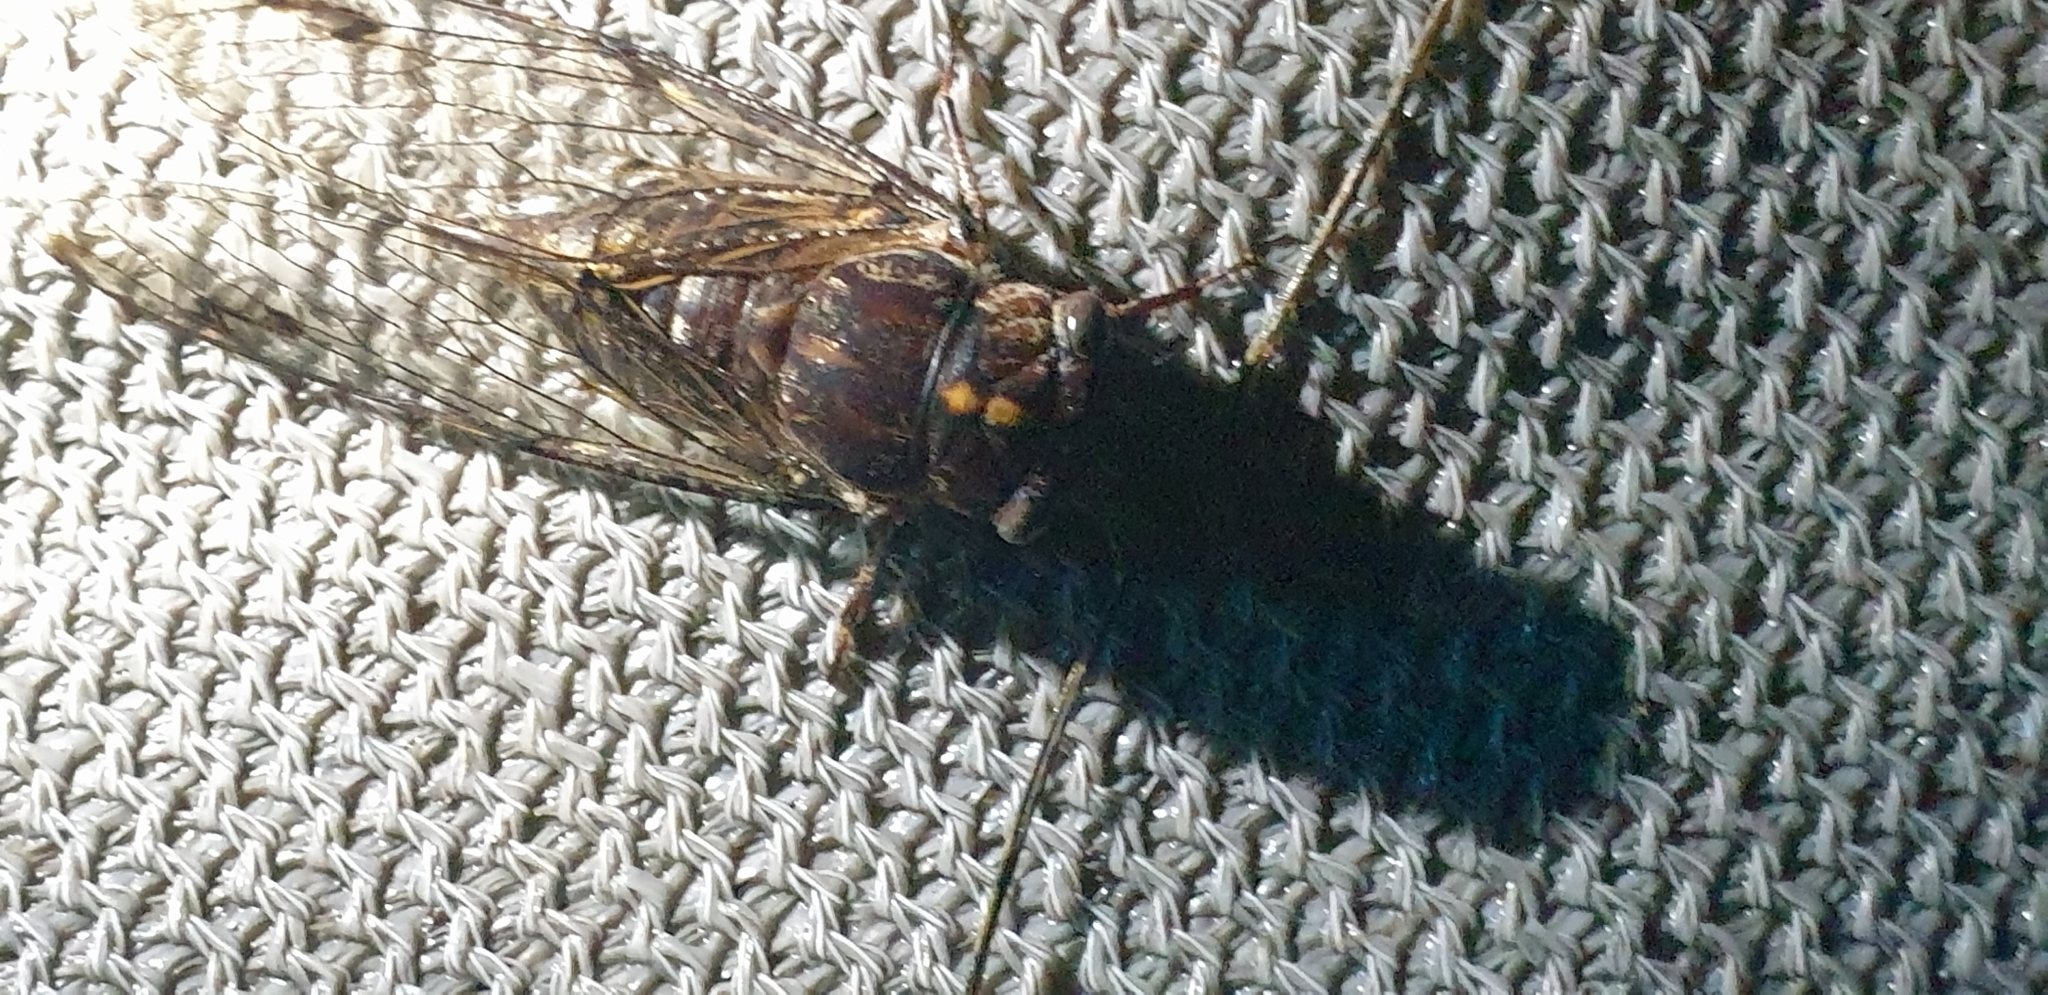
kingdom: Animalia
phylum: Arthropoda
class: Insecta
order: Hemiptera
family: Cicadidae
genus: Aleeta
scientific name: Aleeta curvicosta
